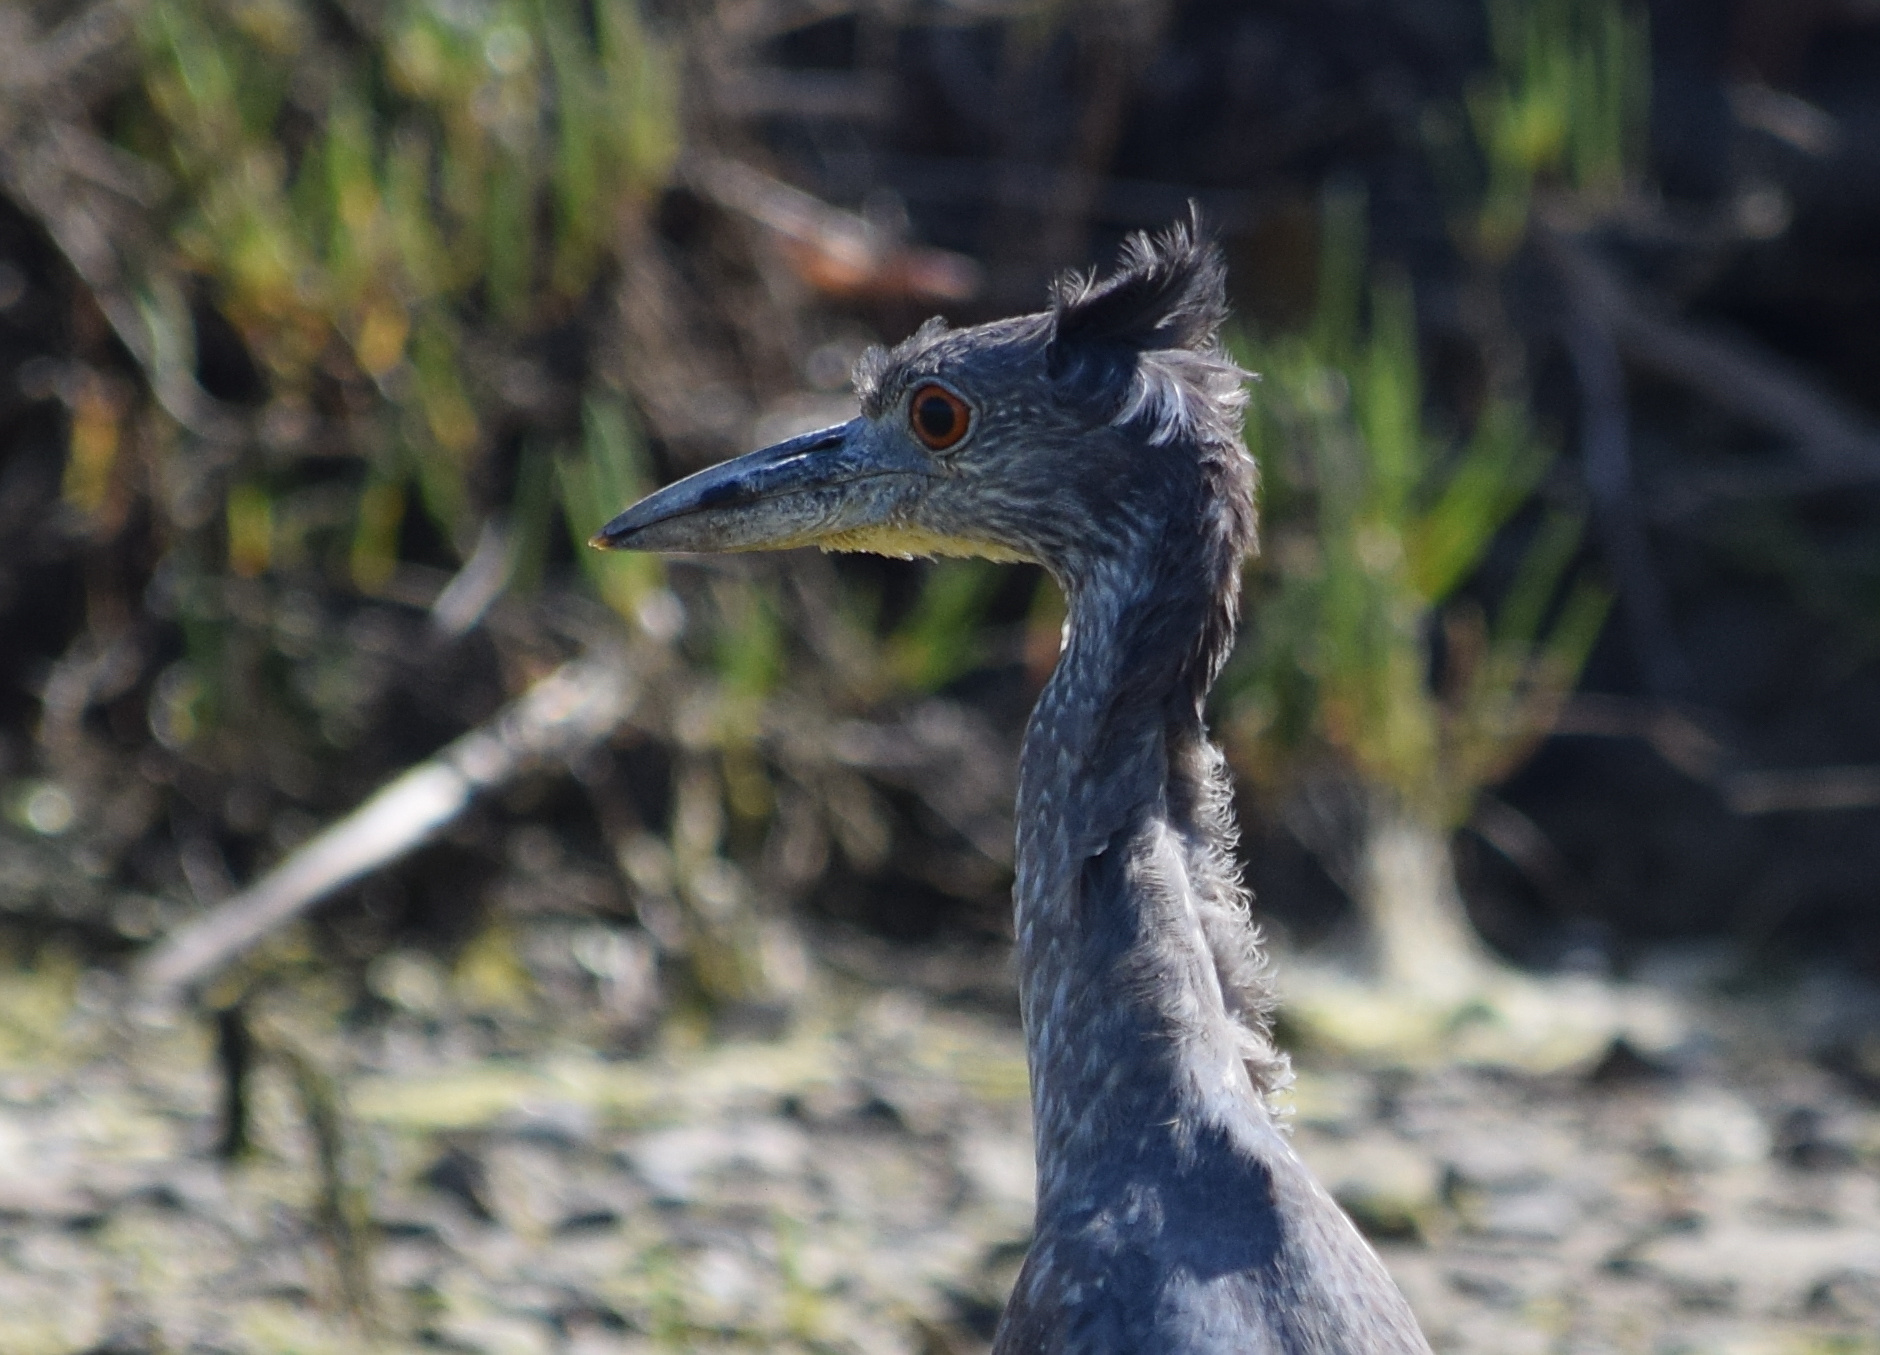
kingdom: Animalia
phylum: Chordata
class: Aves
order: Pelecaniformes
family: Ardeidae
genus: Nyctanassa
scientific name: Nyctanassa violacea
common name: Yellow-crowned night heron
